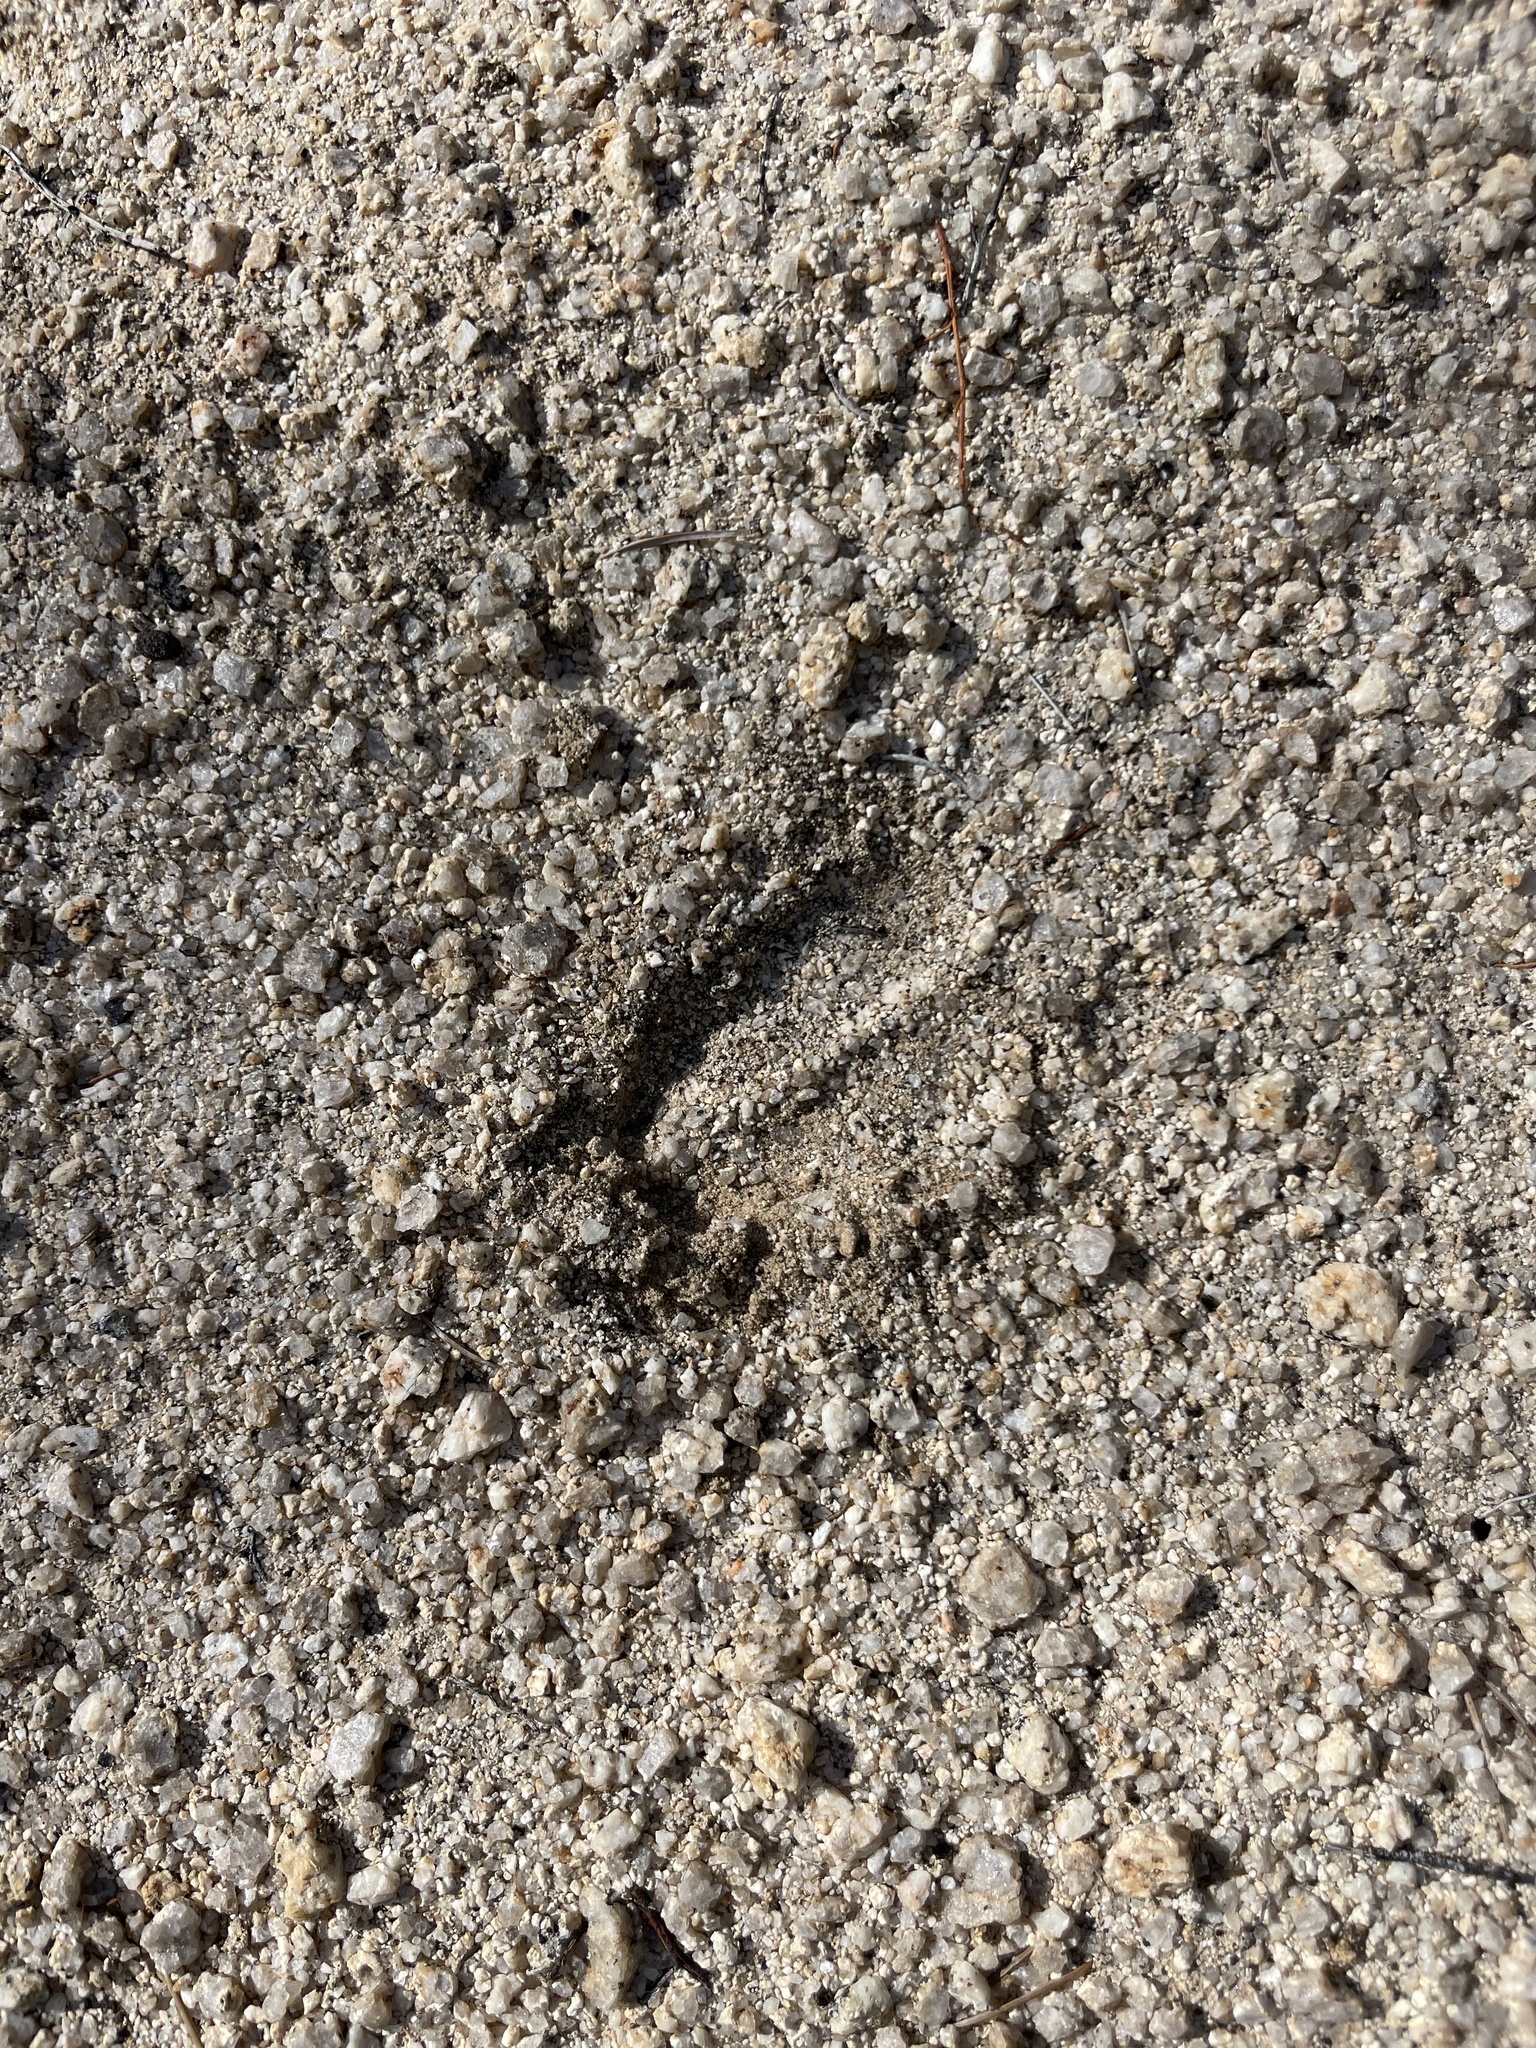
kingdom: Animalia
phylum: Chordata
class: Mammalia
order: Artiodactyla
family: Cervidae
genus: Odocoileus
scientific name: Odocoileus hemionus
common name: Mule deer
